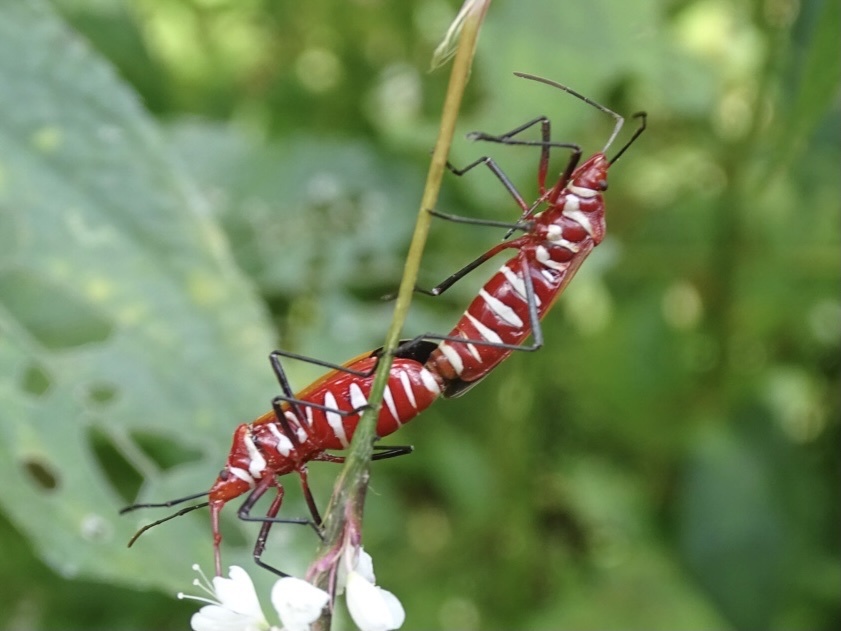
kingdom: Animalia
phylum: Arthropoda
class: Insecta
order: Hemiptera
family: Pyrrhocoridae
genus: Dysdercus
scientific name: Dysdercus cingulatus
